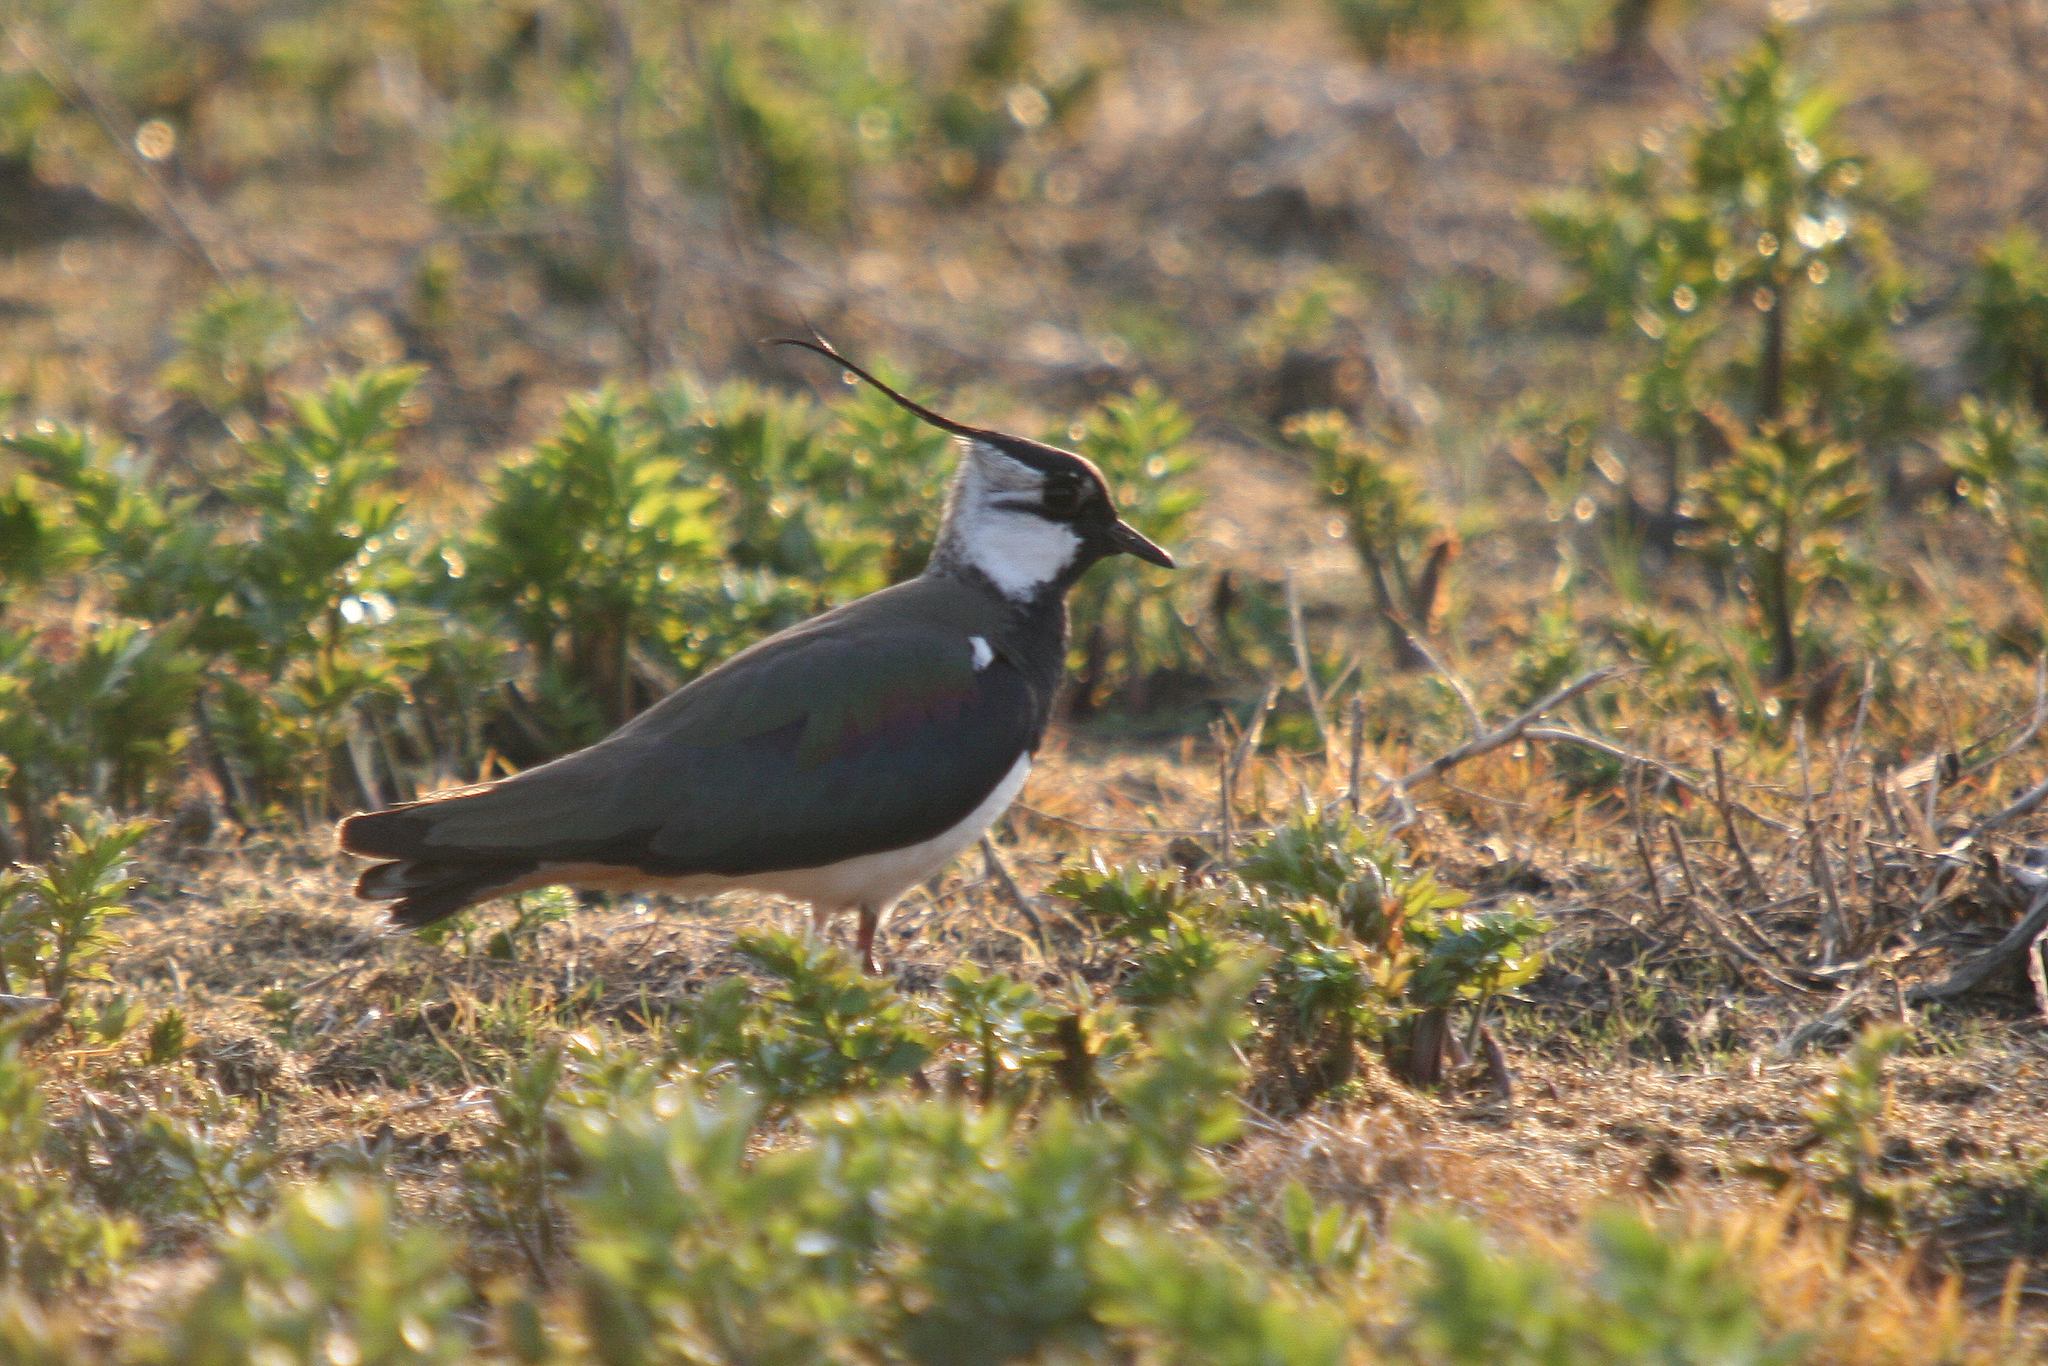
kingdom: Animalia
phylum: Chordata
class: Aves
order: Charadriiformes
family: Charadriidae
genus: Vanellus
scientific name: Vanellus vanellus
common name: Northern lapwing
